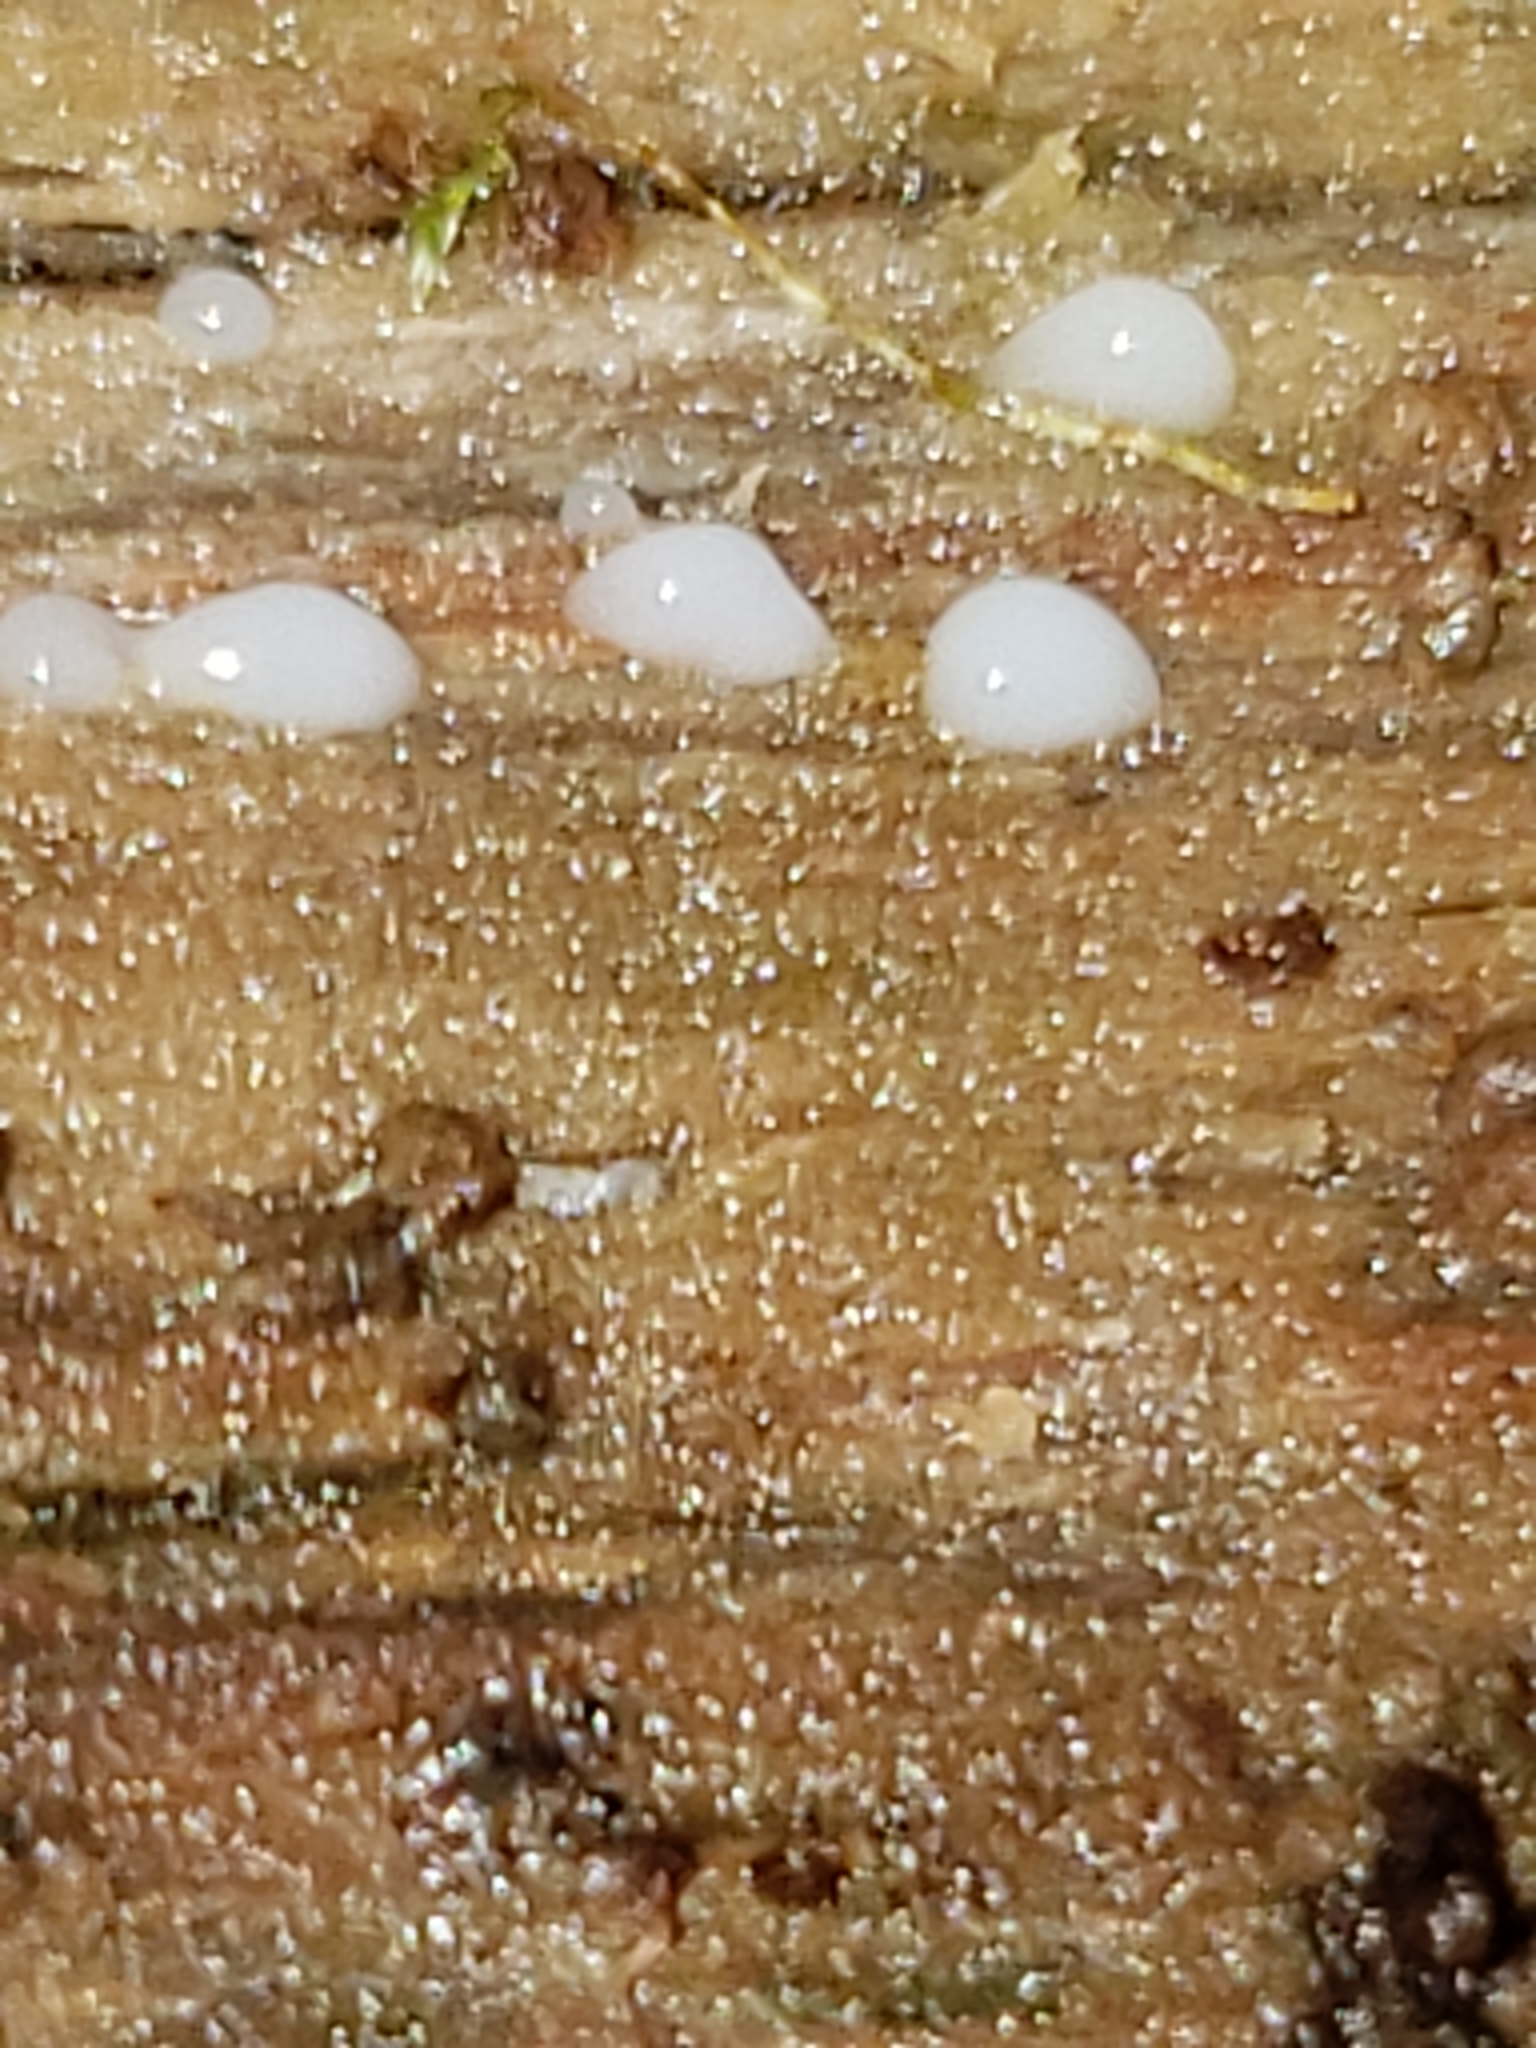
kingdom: Fungi
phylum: Basidiomycota
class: Atractiellomycetes
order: Atractiellales
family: Phleogenaceae
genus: Helicogloea
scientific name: Helicogloea compressa
